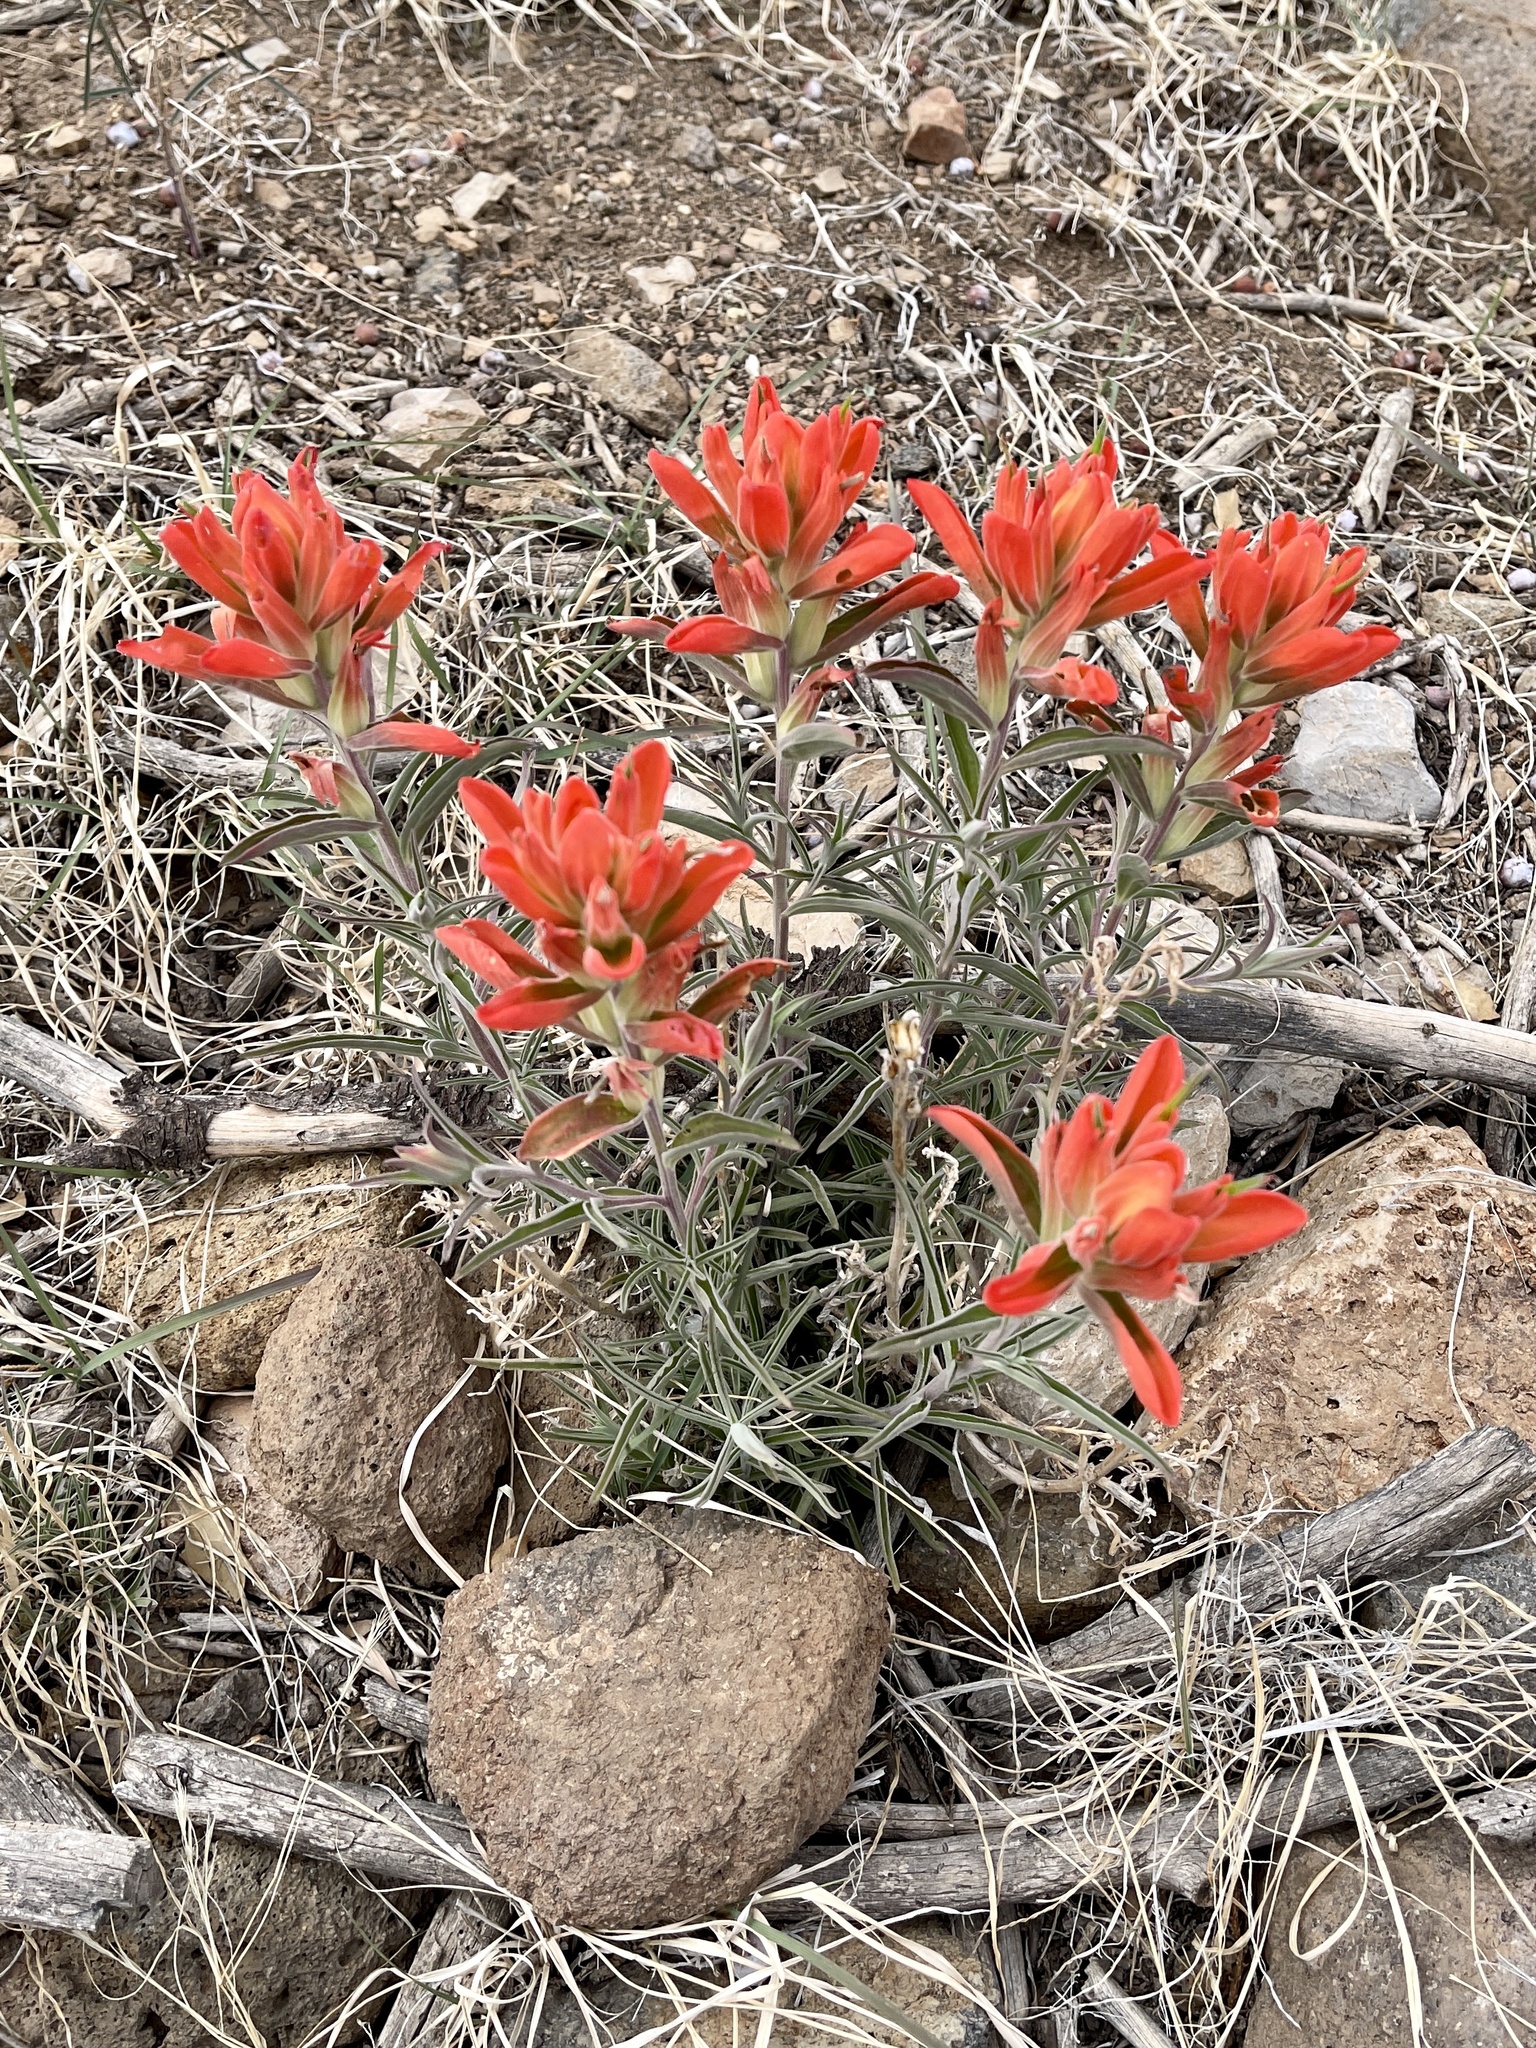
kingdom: Plantae
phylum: Tracheophyta
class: Magnoliopsida
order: Lamiales
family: Orobanchaceae
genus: Castilleja
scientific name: Castilleja integra
